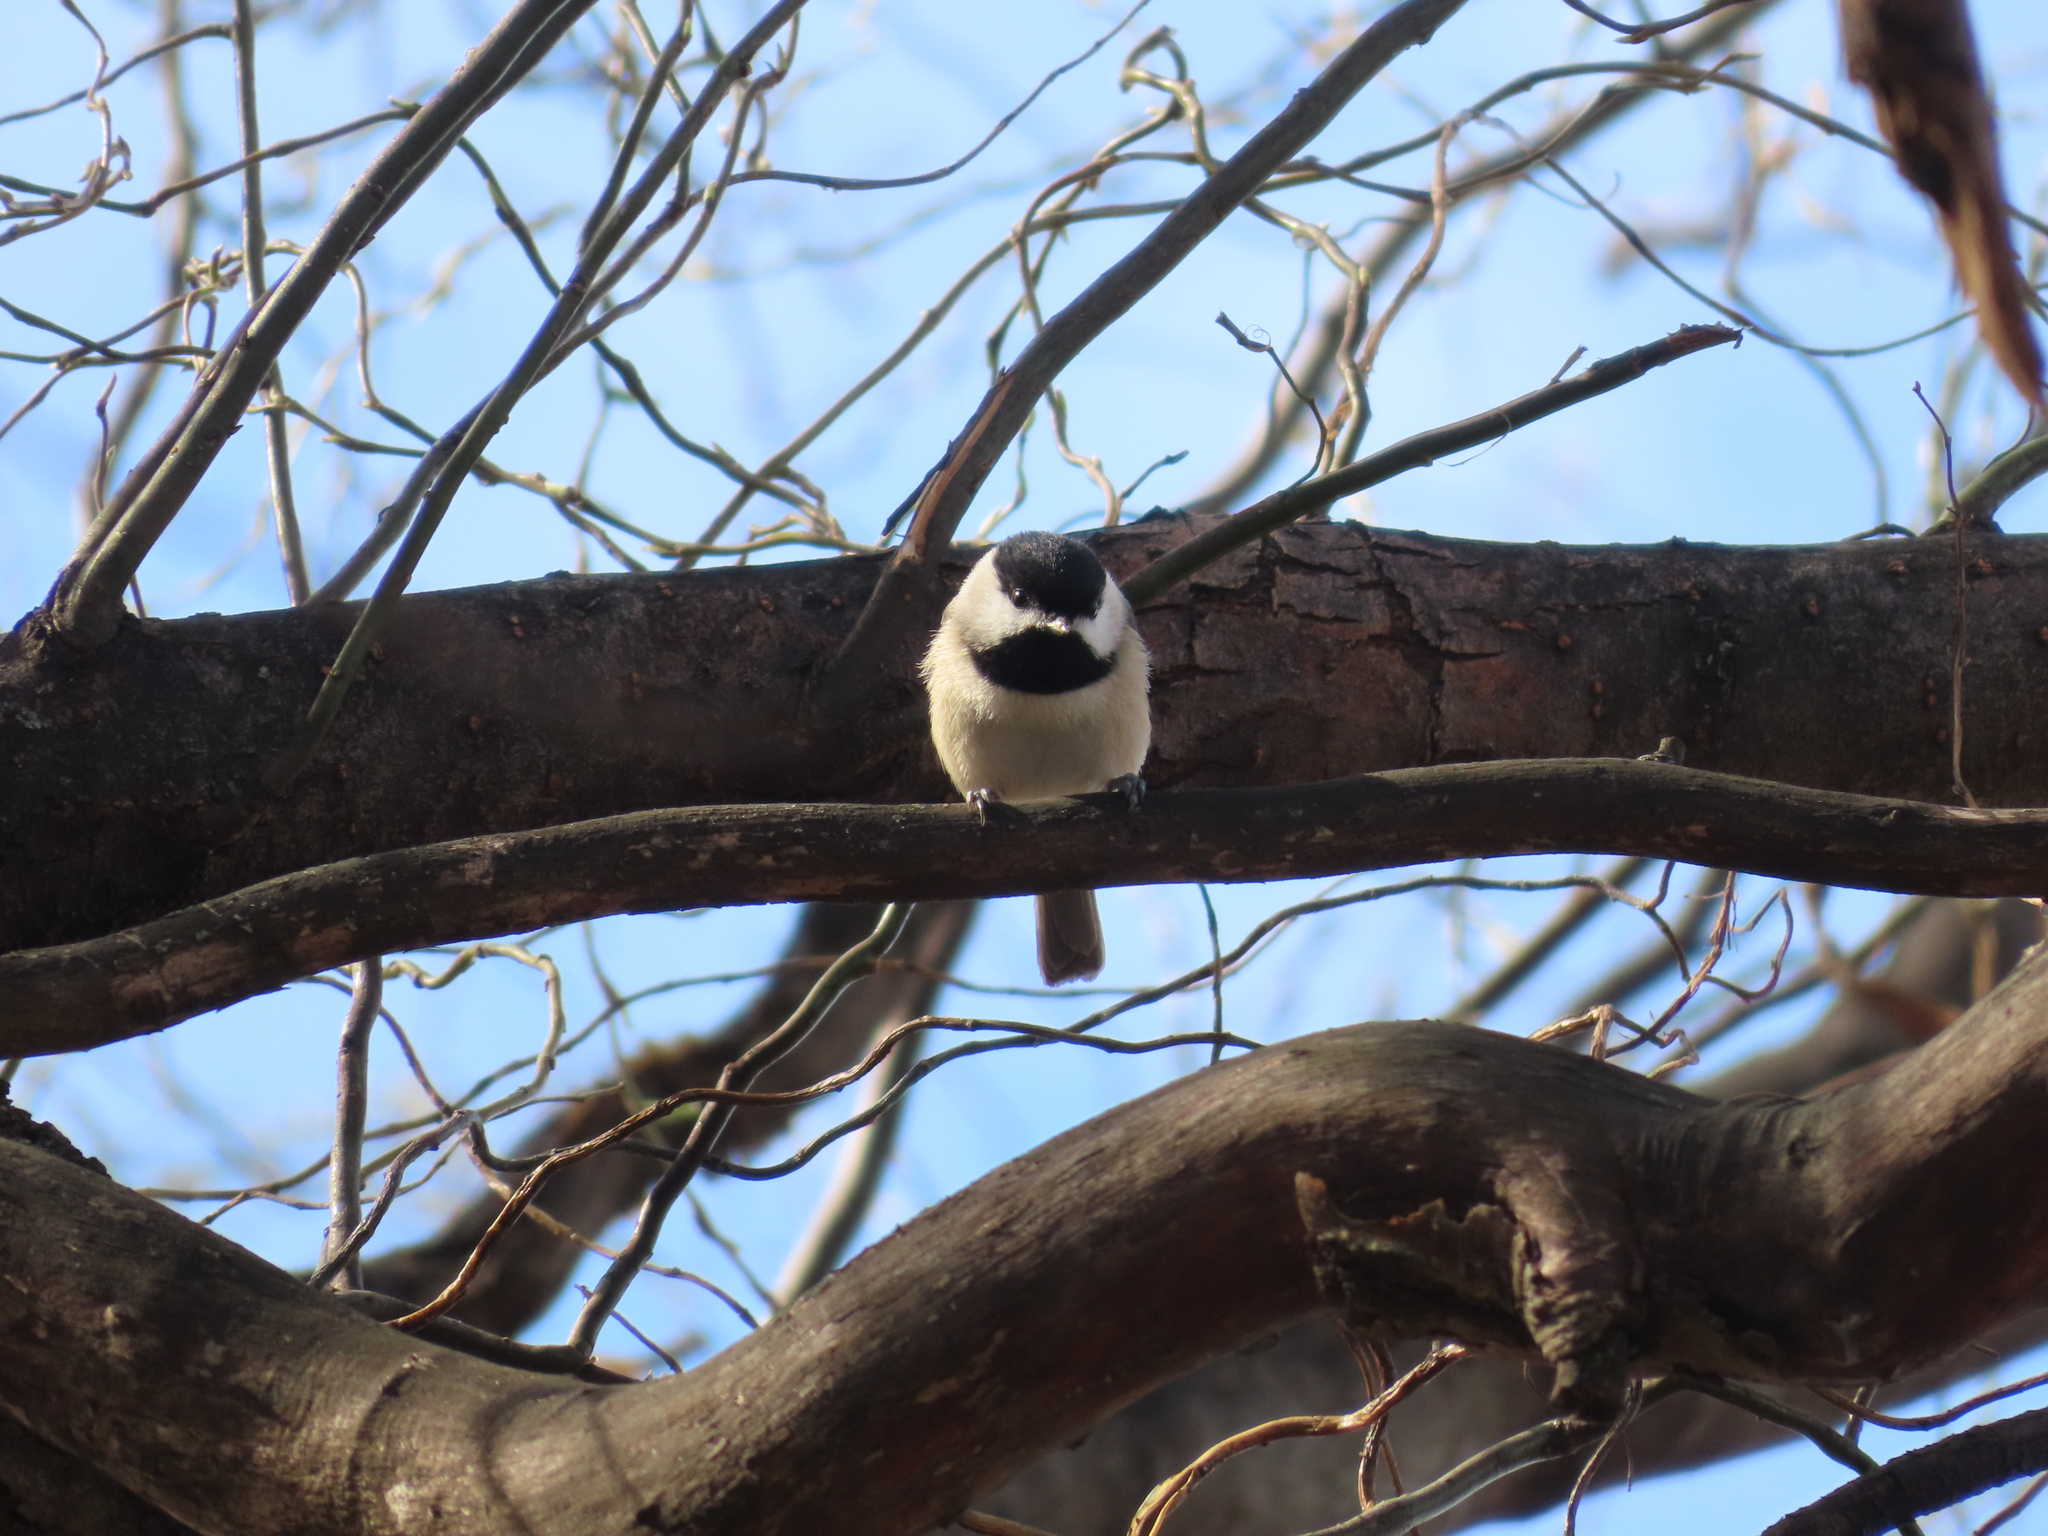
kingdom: Animalia
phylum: Chordata
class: Aves
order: Passeriformes
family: Paridae
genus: Poecile
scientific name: Poecile carolinensis
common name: Carolina chickadee
